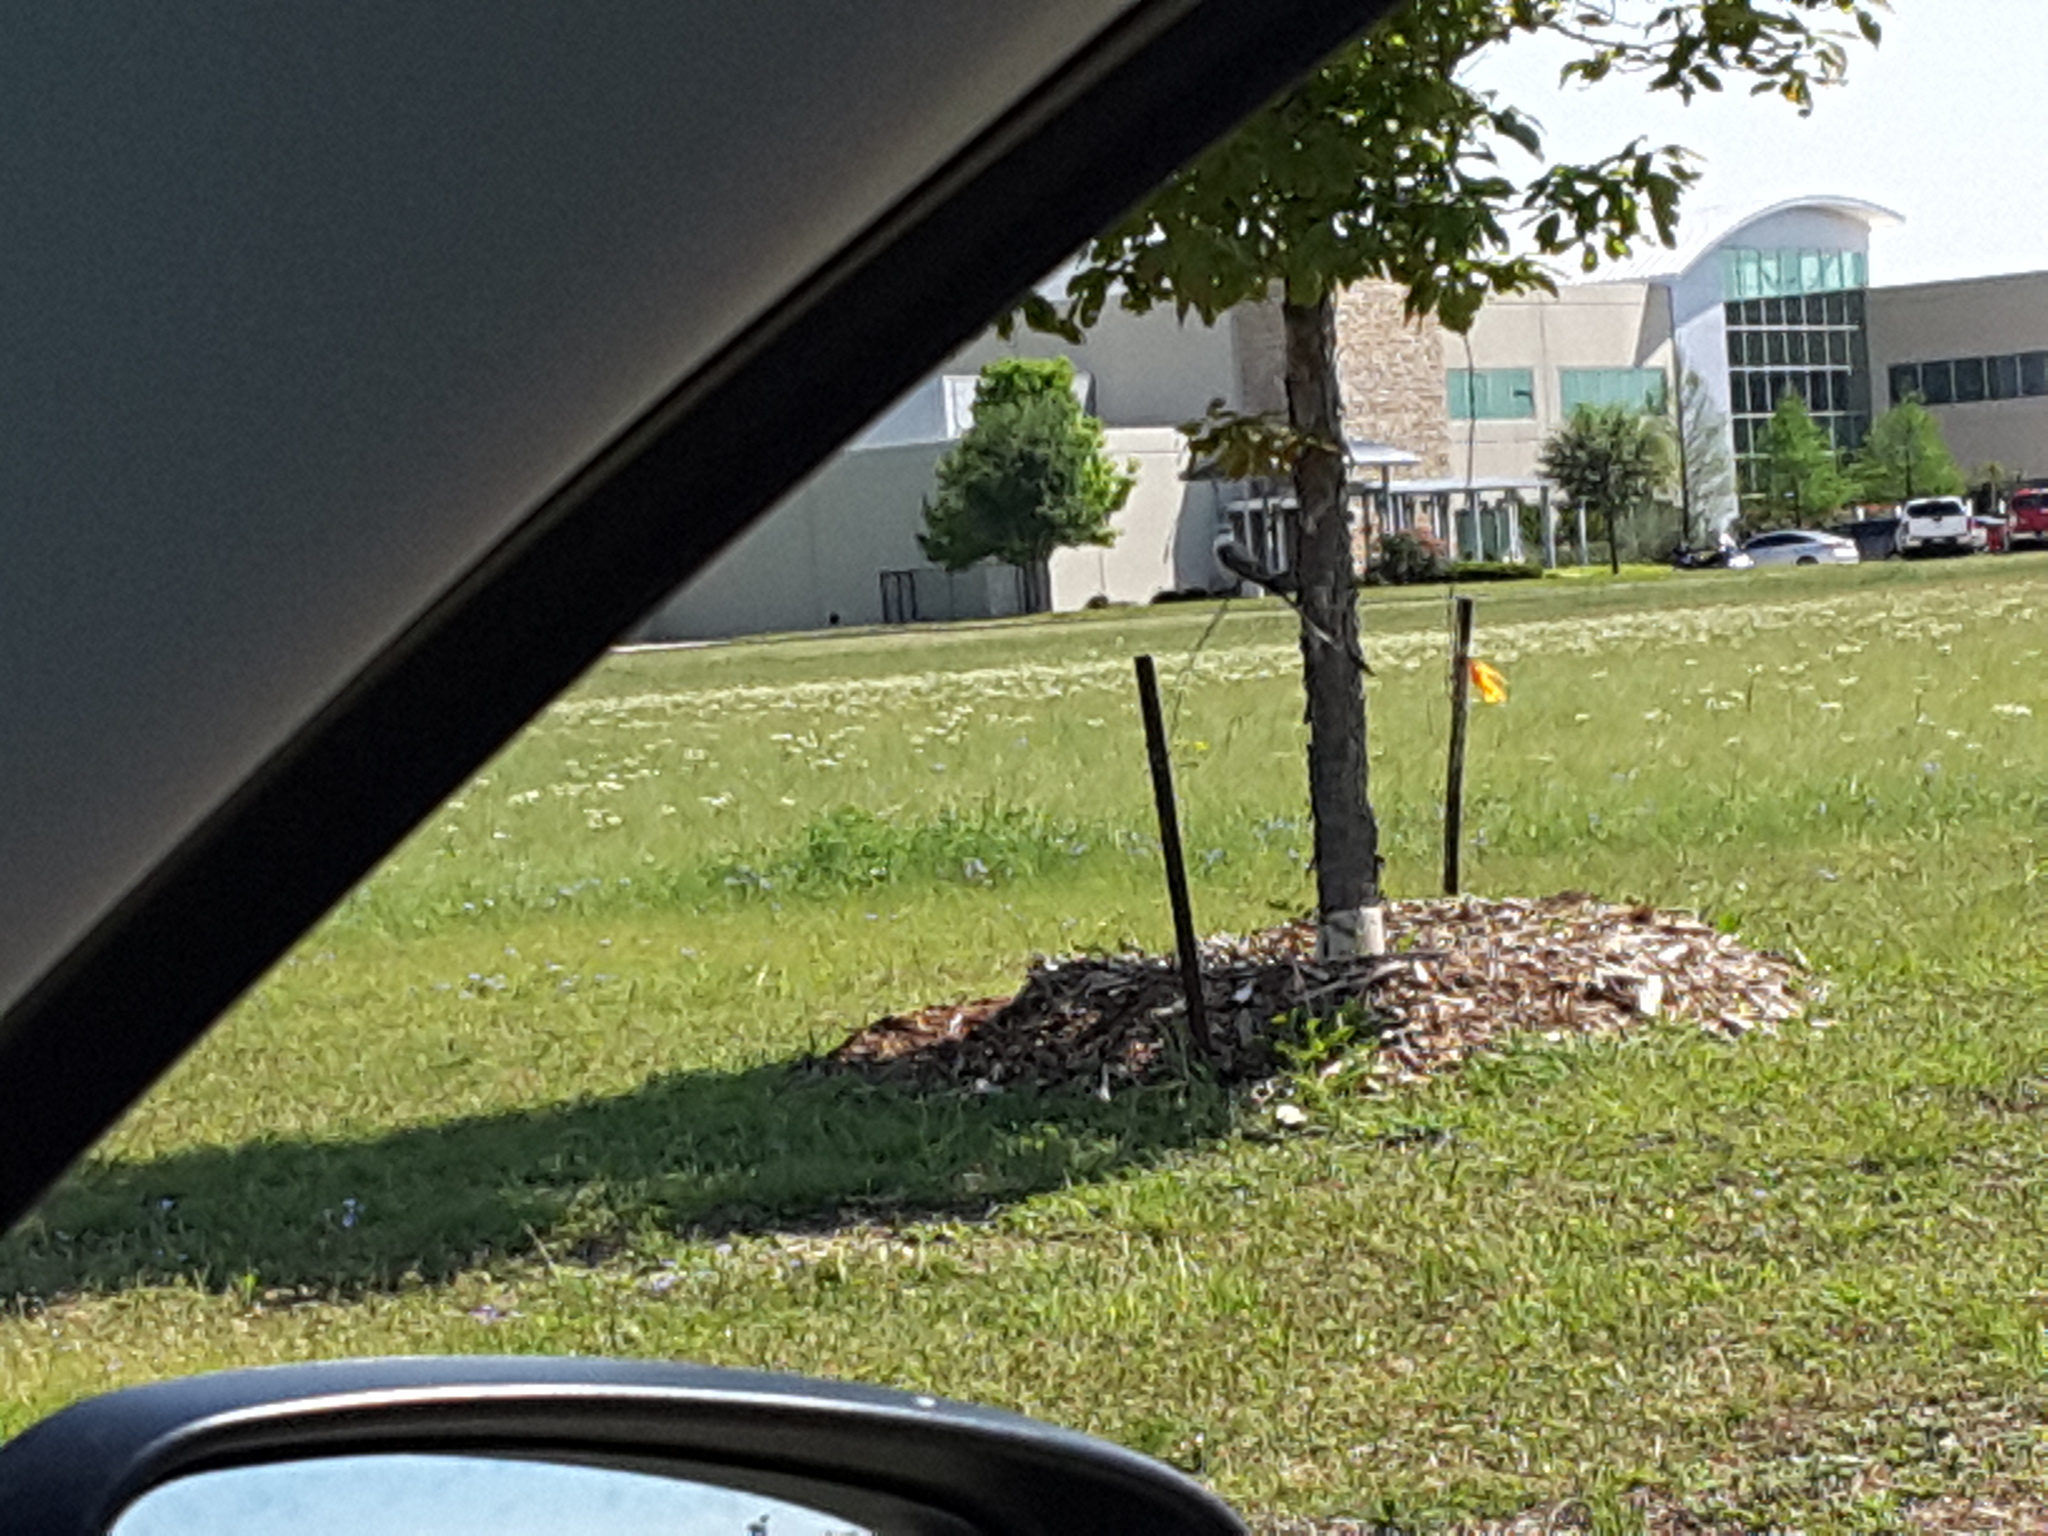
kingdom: Animalia
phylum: Chordata
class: Aves
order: Passeriformes
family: Tyrannidae
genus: Tyrannus
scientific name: Tyrannus forficatus
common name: Scissor-tailed flycatcher
